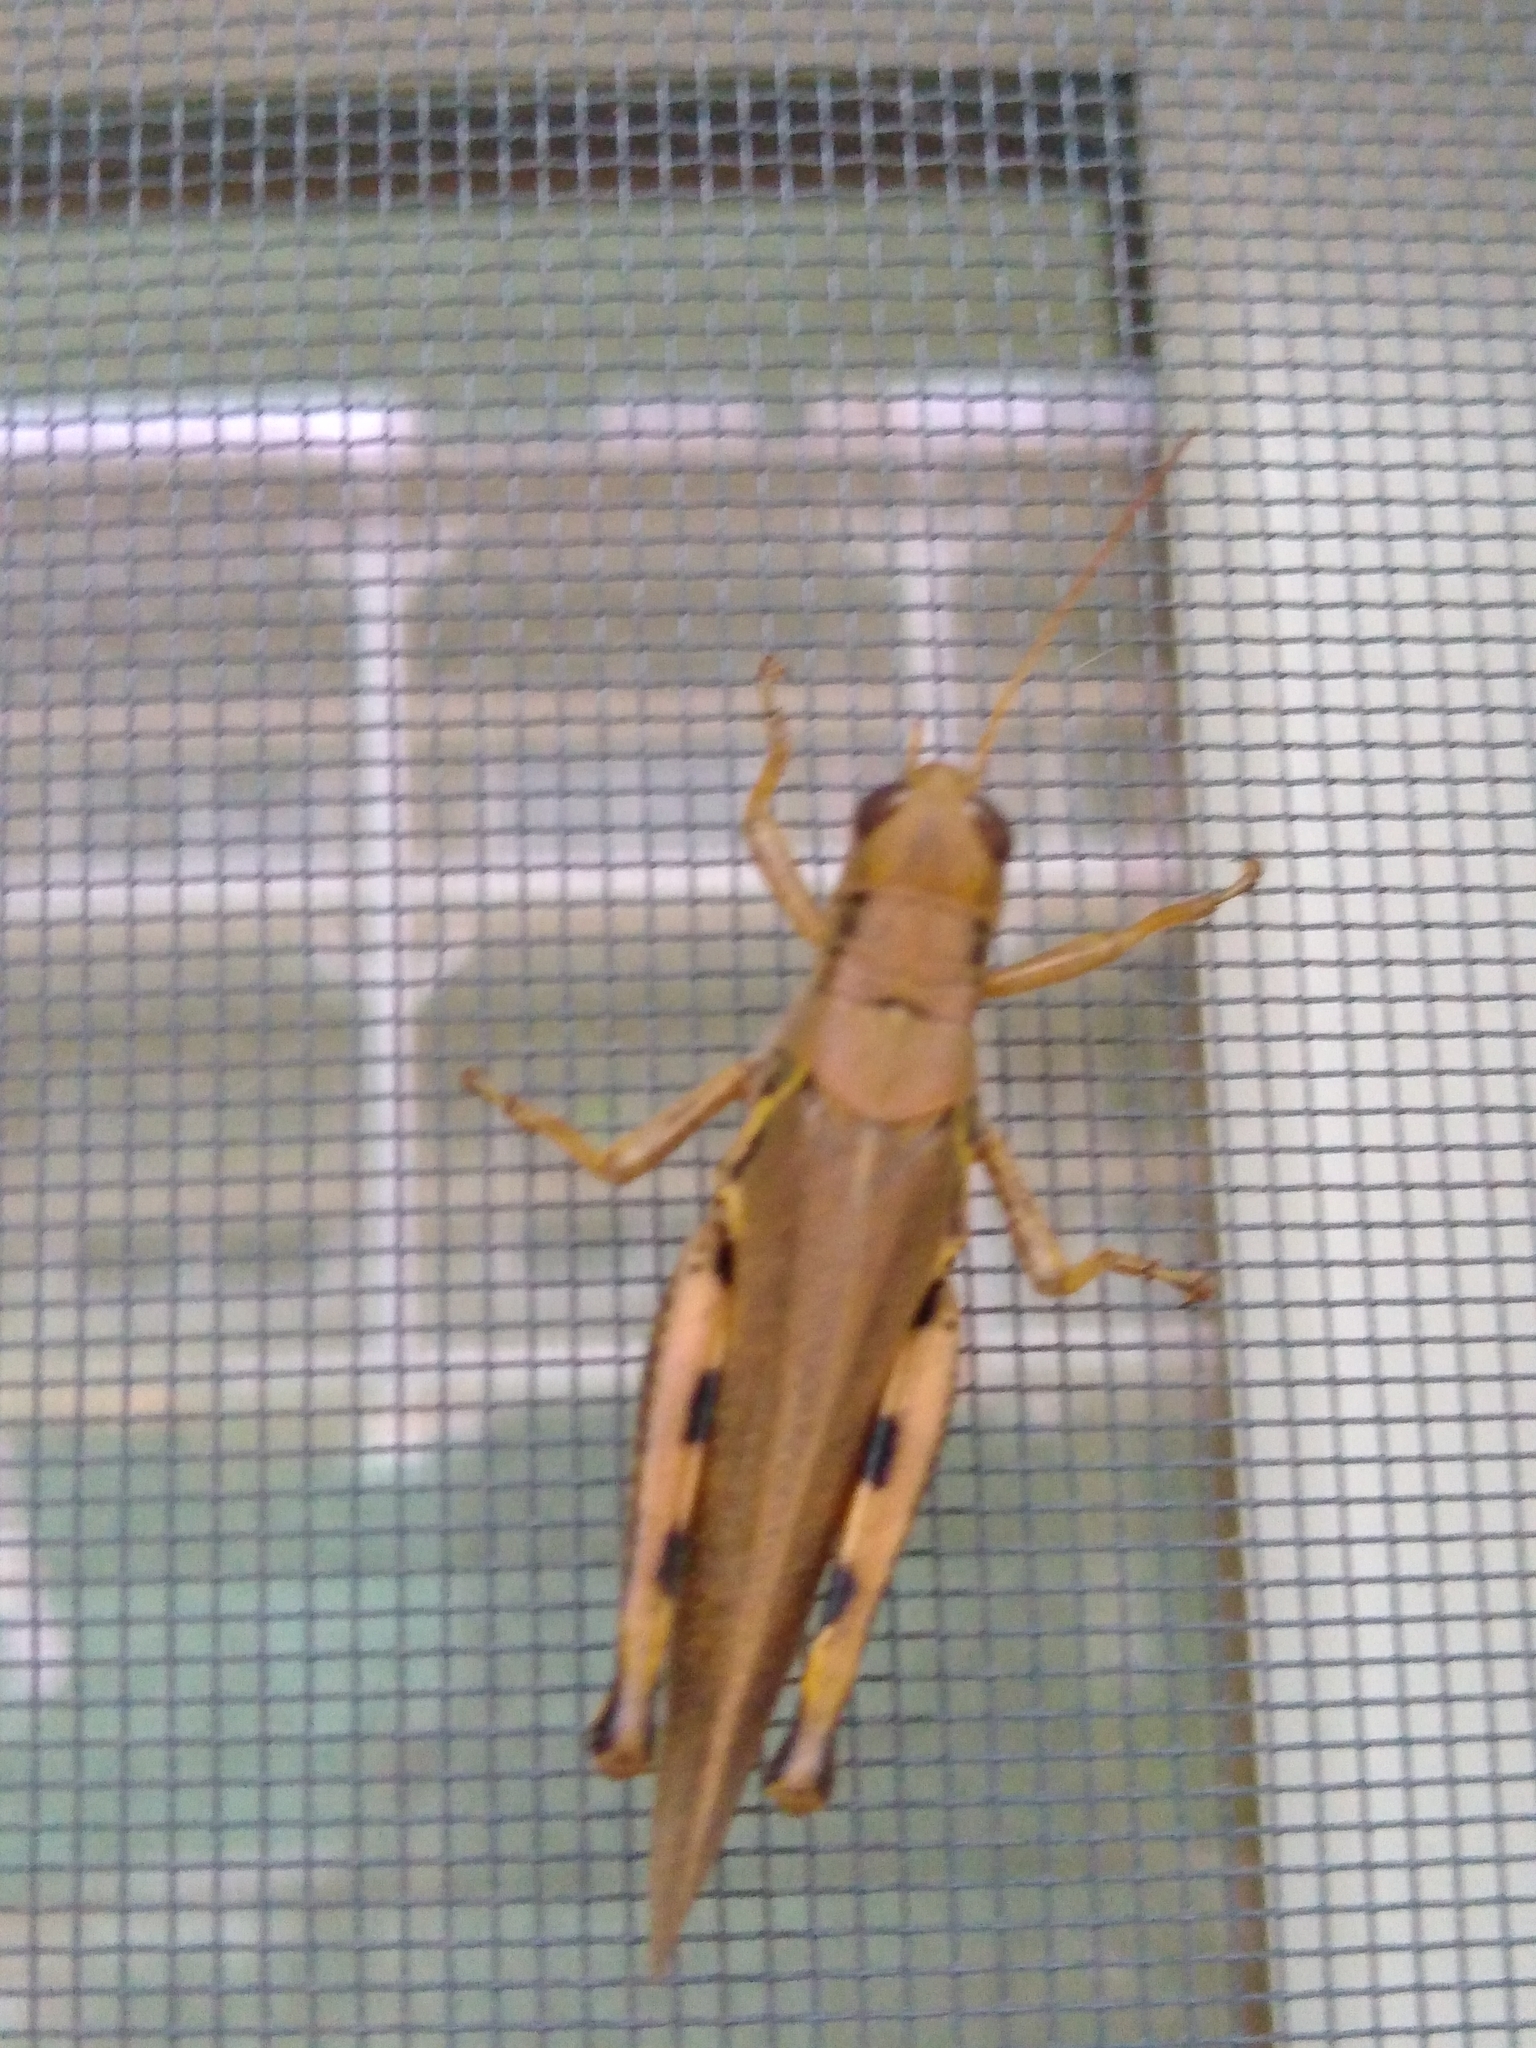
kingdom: Animalia
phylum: Arthropoda
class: Insecta
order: Orthoptera
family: Acrididae
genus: Melanoplus
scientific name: Melanoplus differentialis
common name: Differential grasshopper
